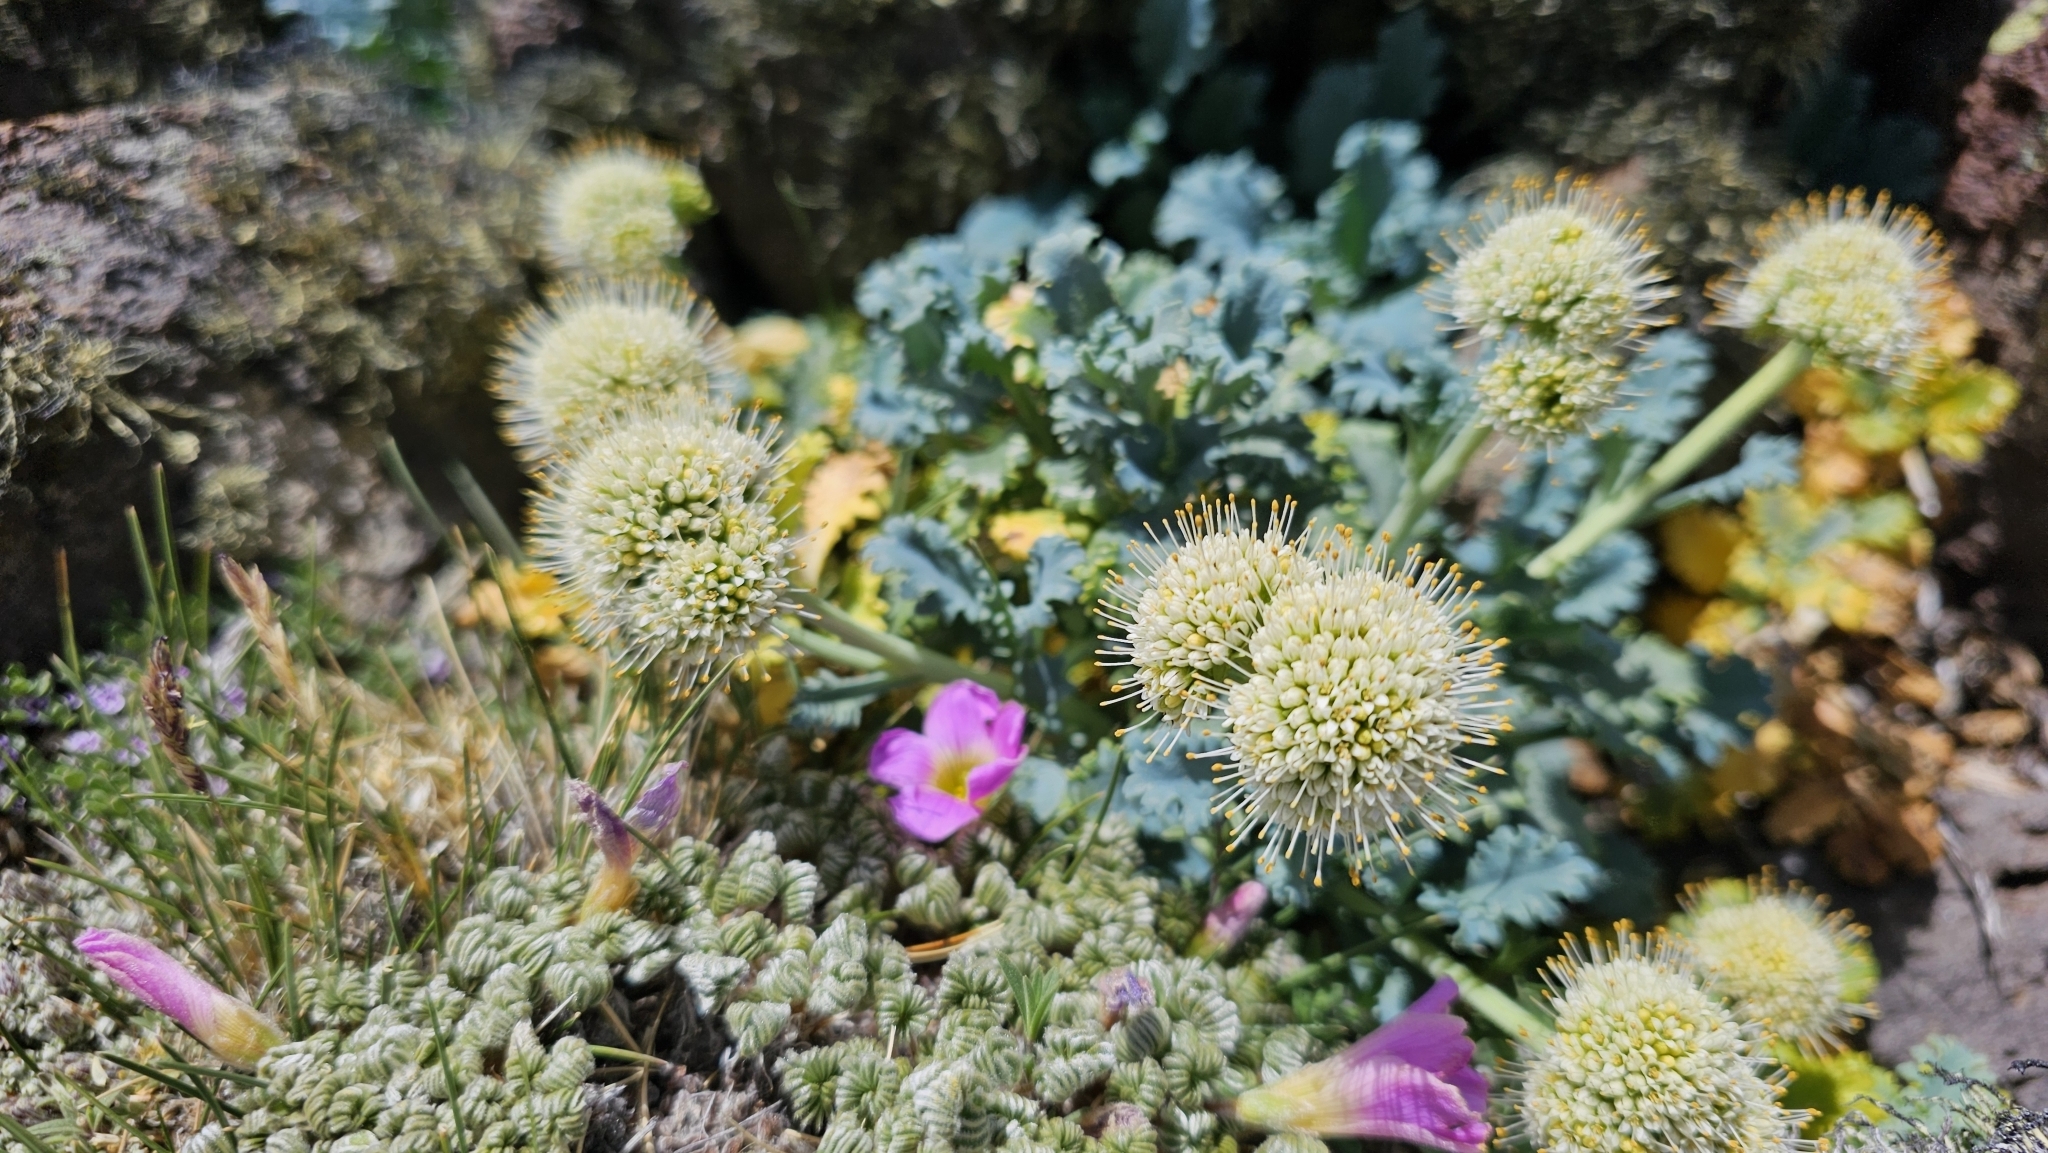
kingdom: Plantae
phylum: Tracheophyta
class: Magnoliopsida
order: Asterales
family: Calyceraceae
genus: Moschopsis
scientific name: Moschopsis ameghinoi
